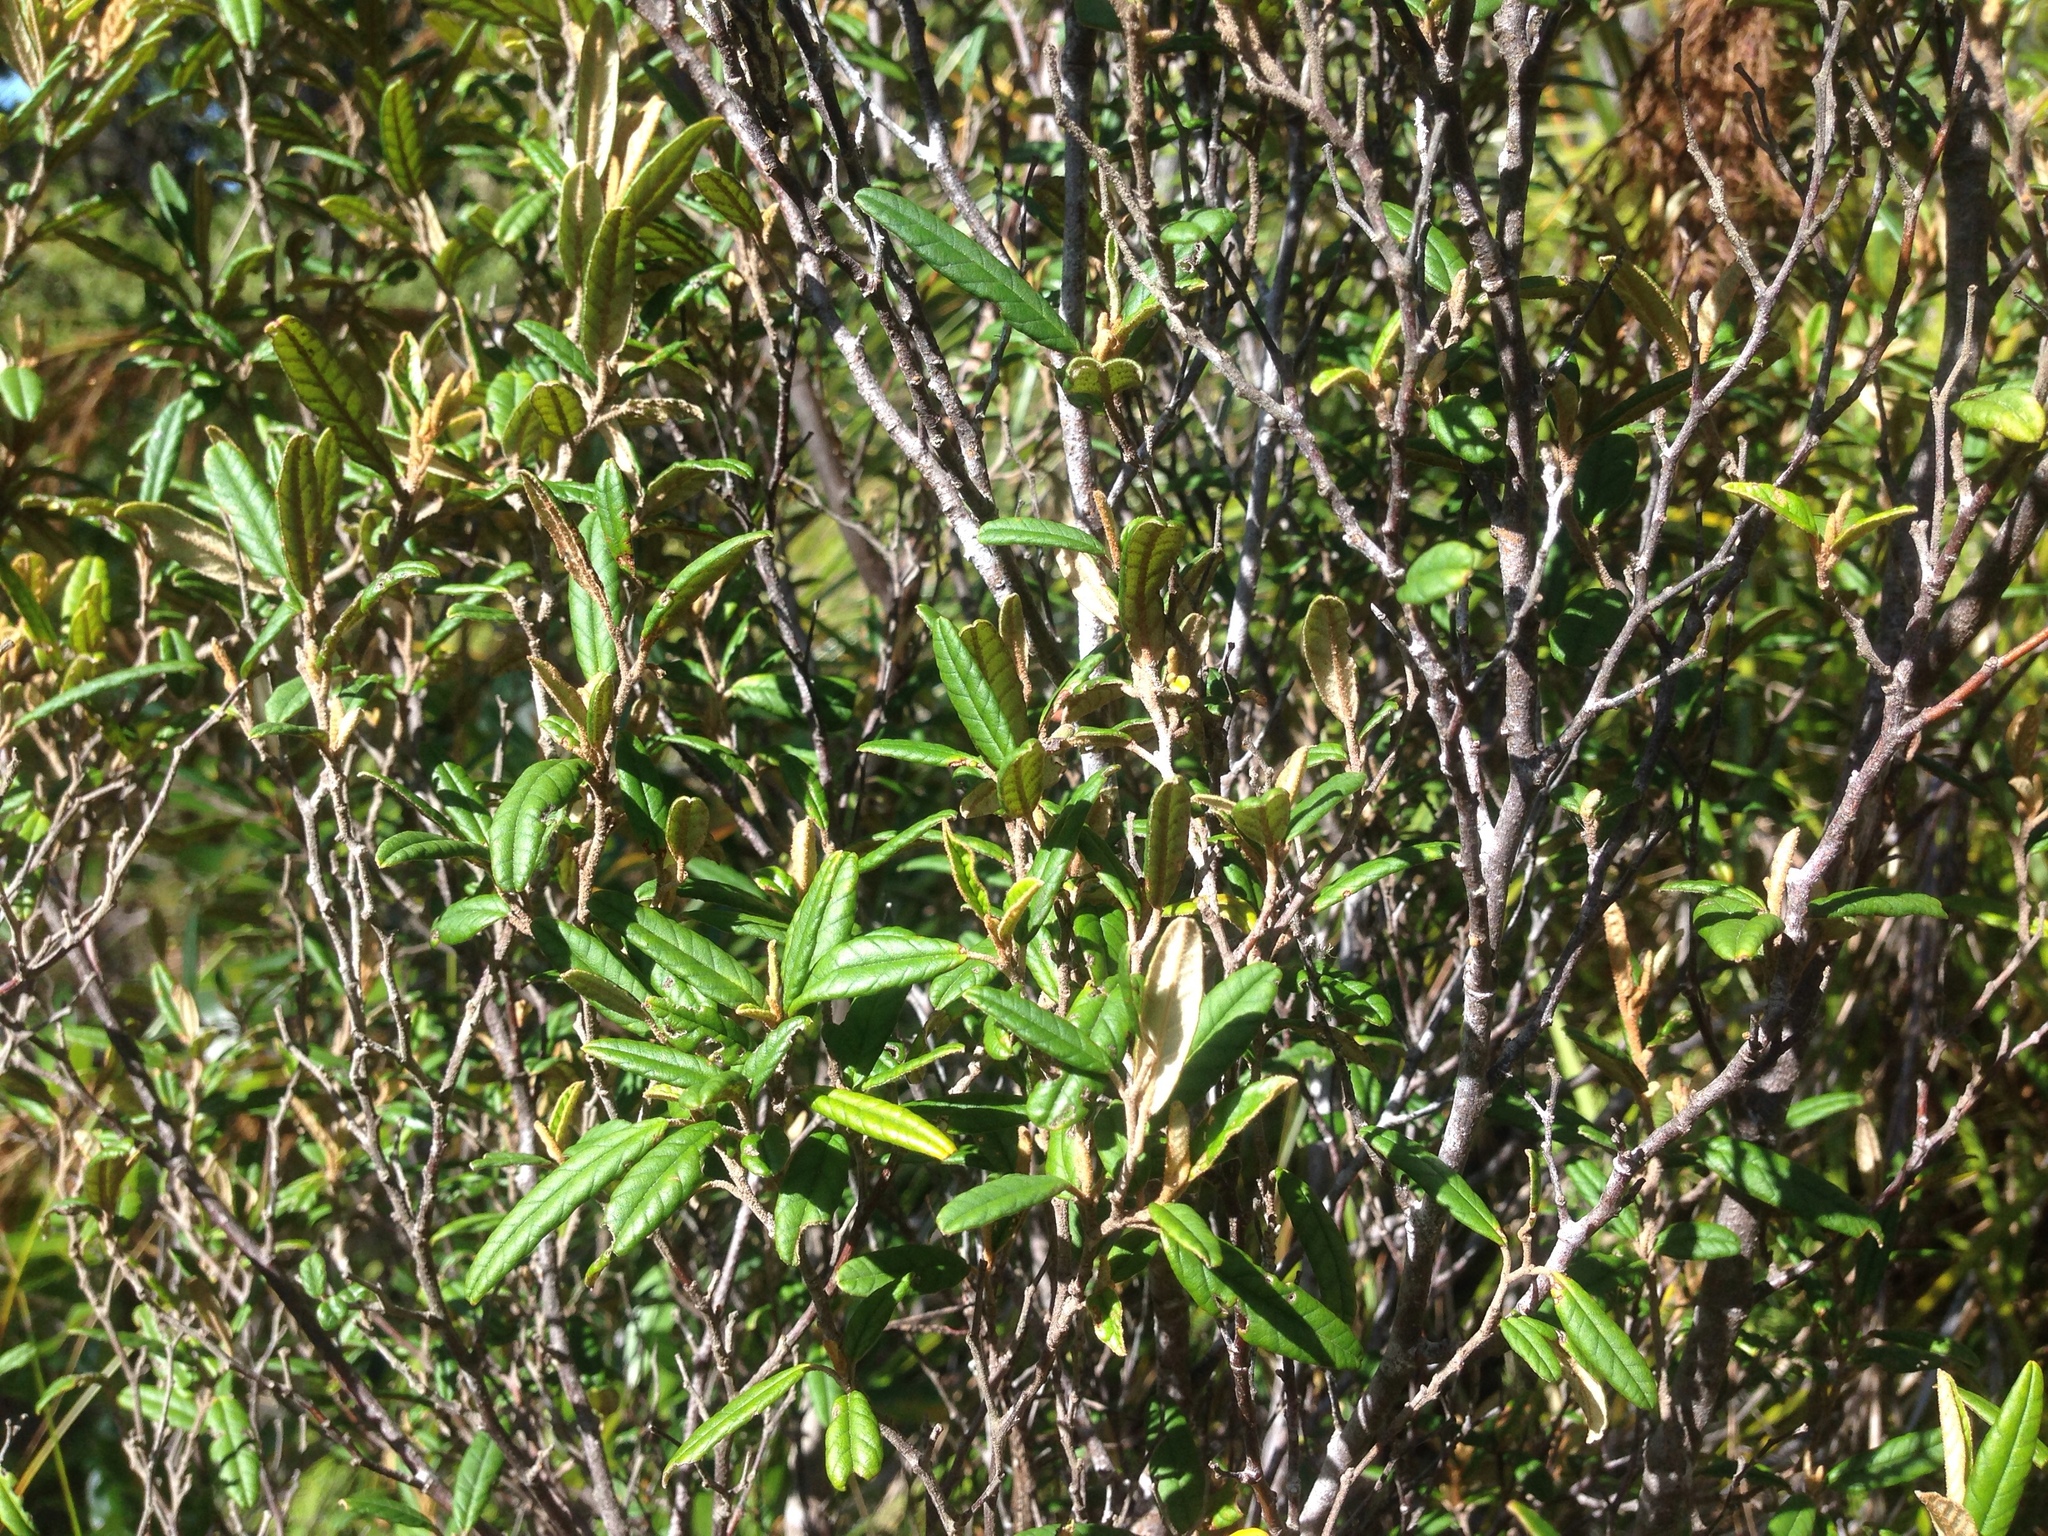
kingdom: Plantae
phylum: Tracheophyta
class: Magnoliopsida
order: Rosales
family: Rhamnaceae
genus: Pomaderris
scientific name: Pomaderris rugosa
